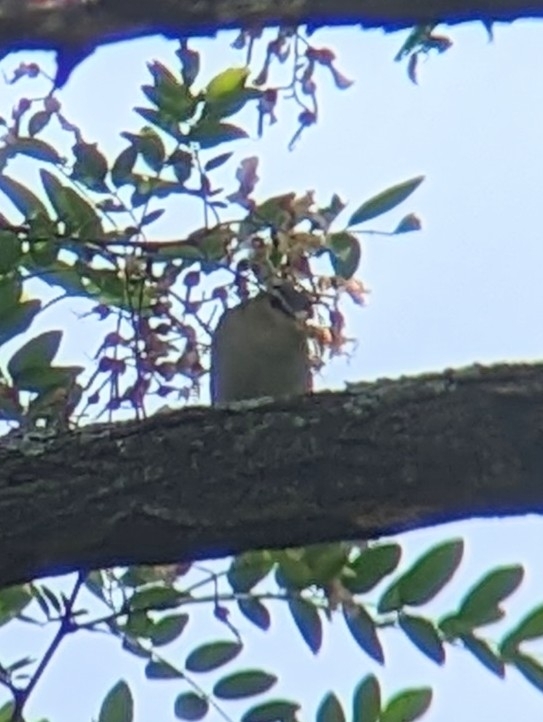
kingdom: Animalia
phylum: Chordata
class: Aves
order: Passeriformes
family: Vireonidae
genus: Vireo
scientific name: Vireo olivaceus
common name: Red-eyed vireo
